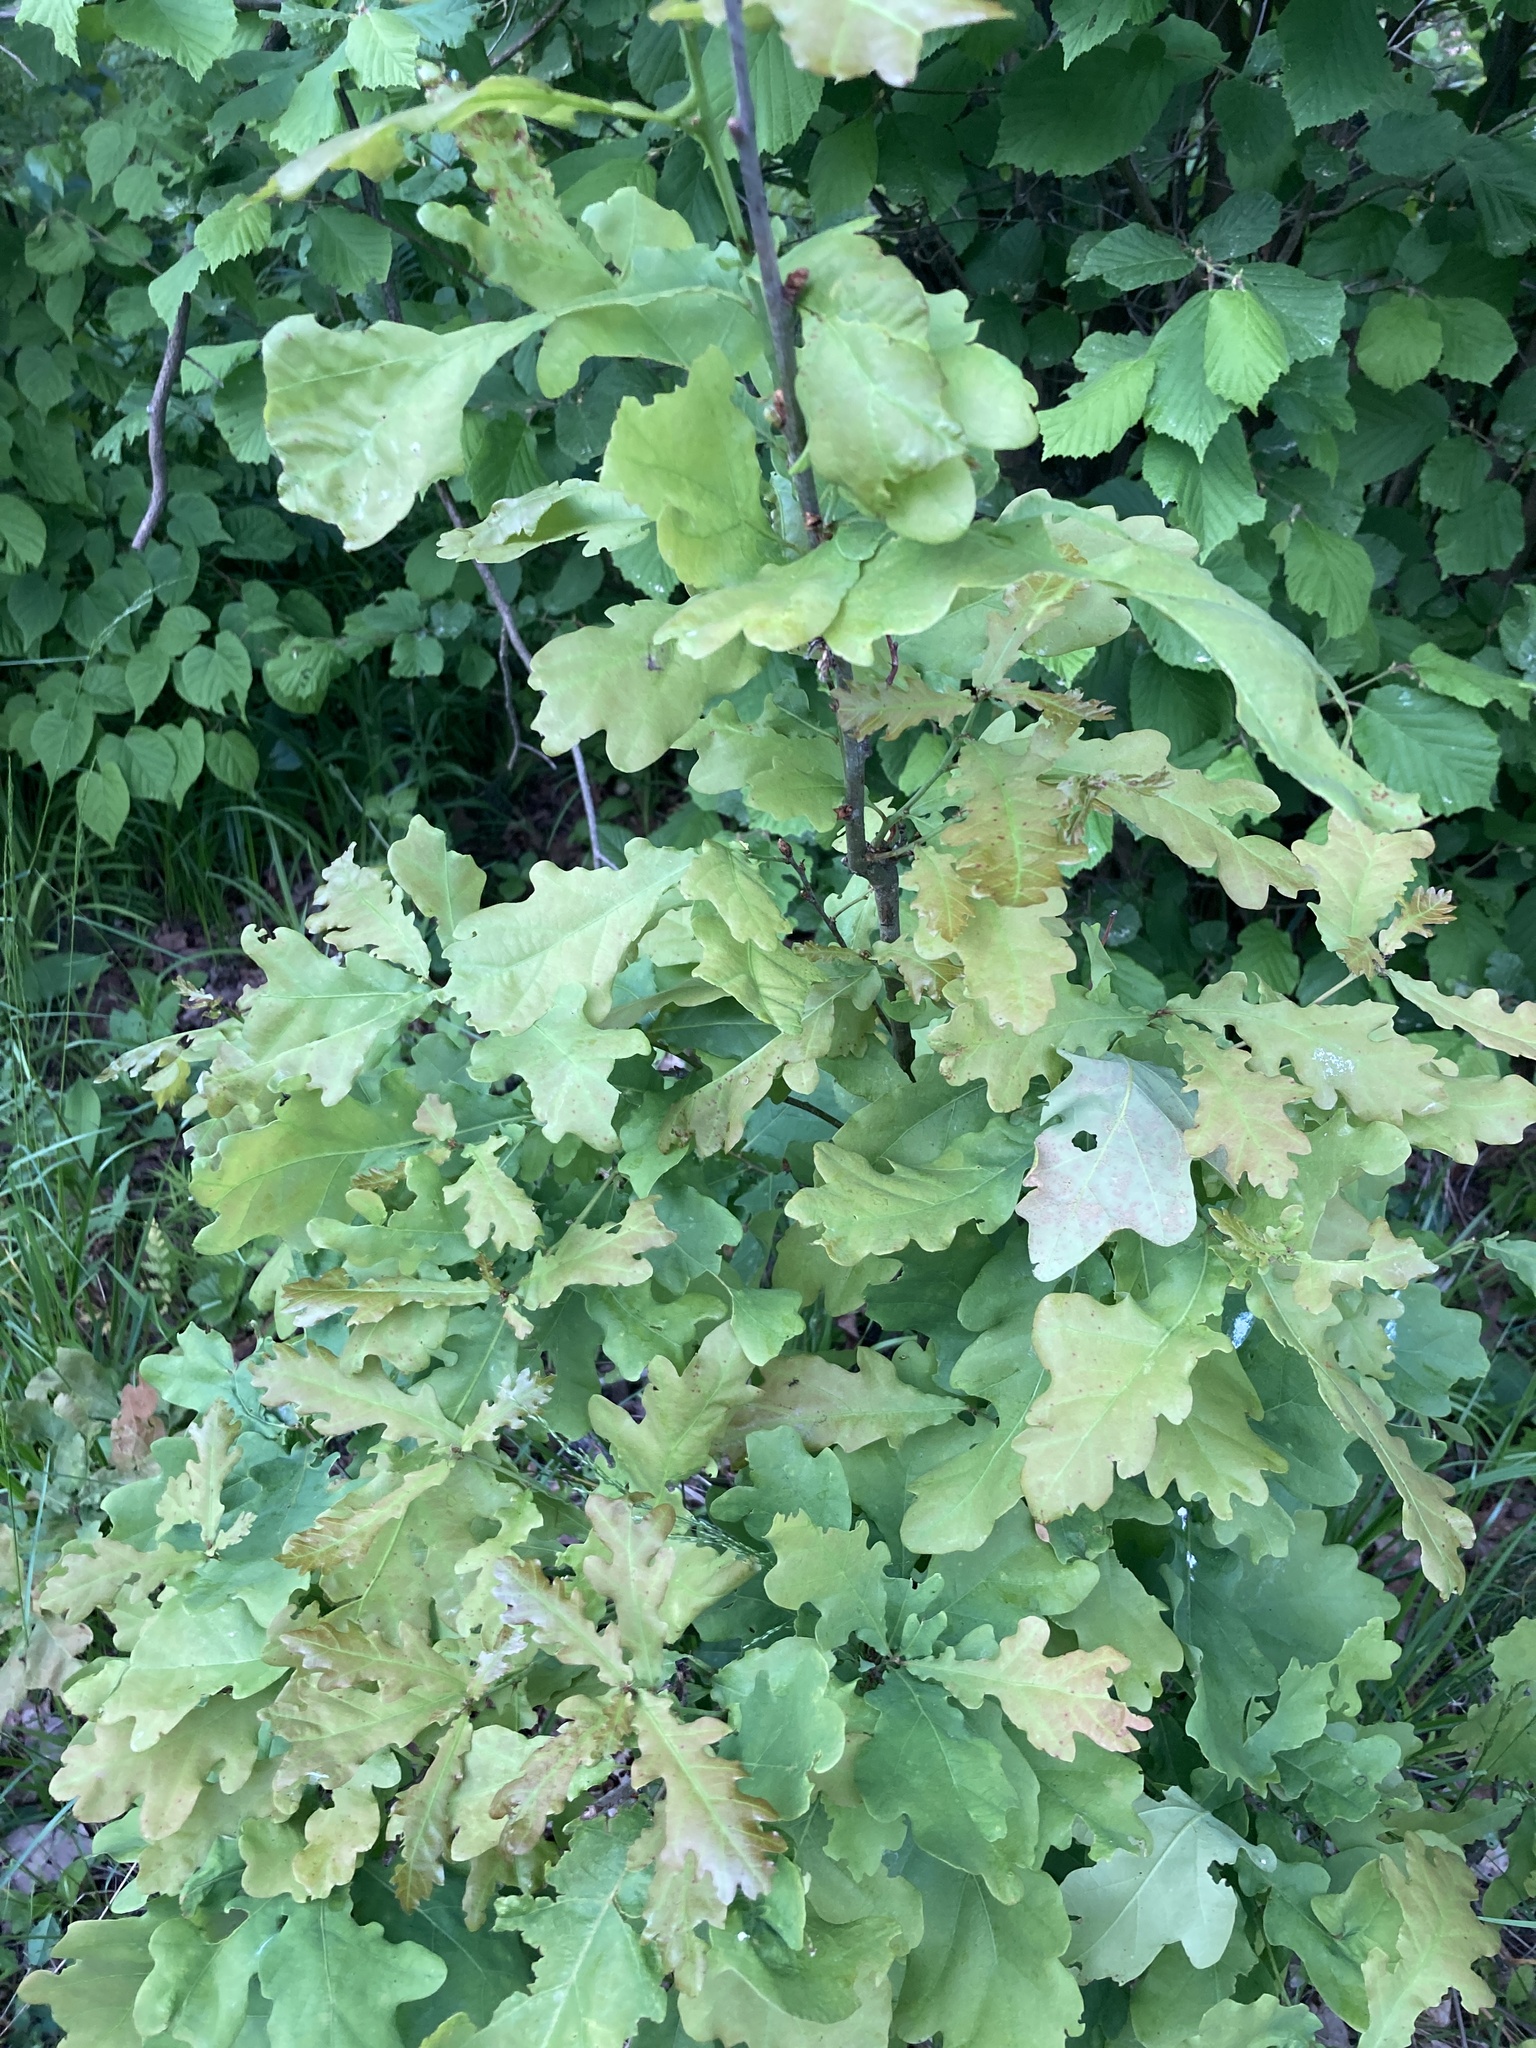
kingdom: Plantae
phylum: Tracheophyta
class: Magnoliopsida
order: Fagales
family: Fagaceae
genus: Quercus
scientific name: Quercus robur
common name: Pedunculate oak
